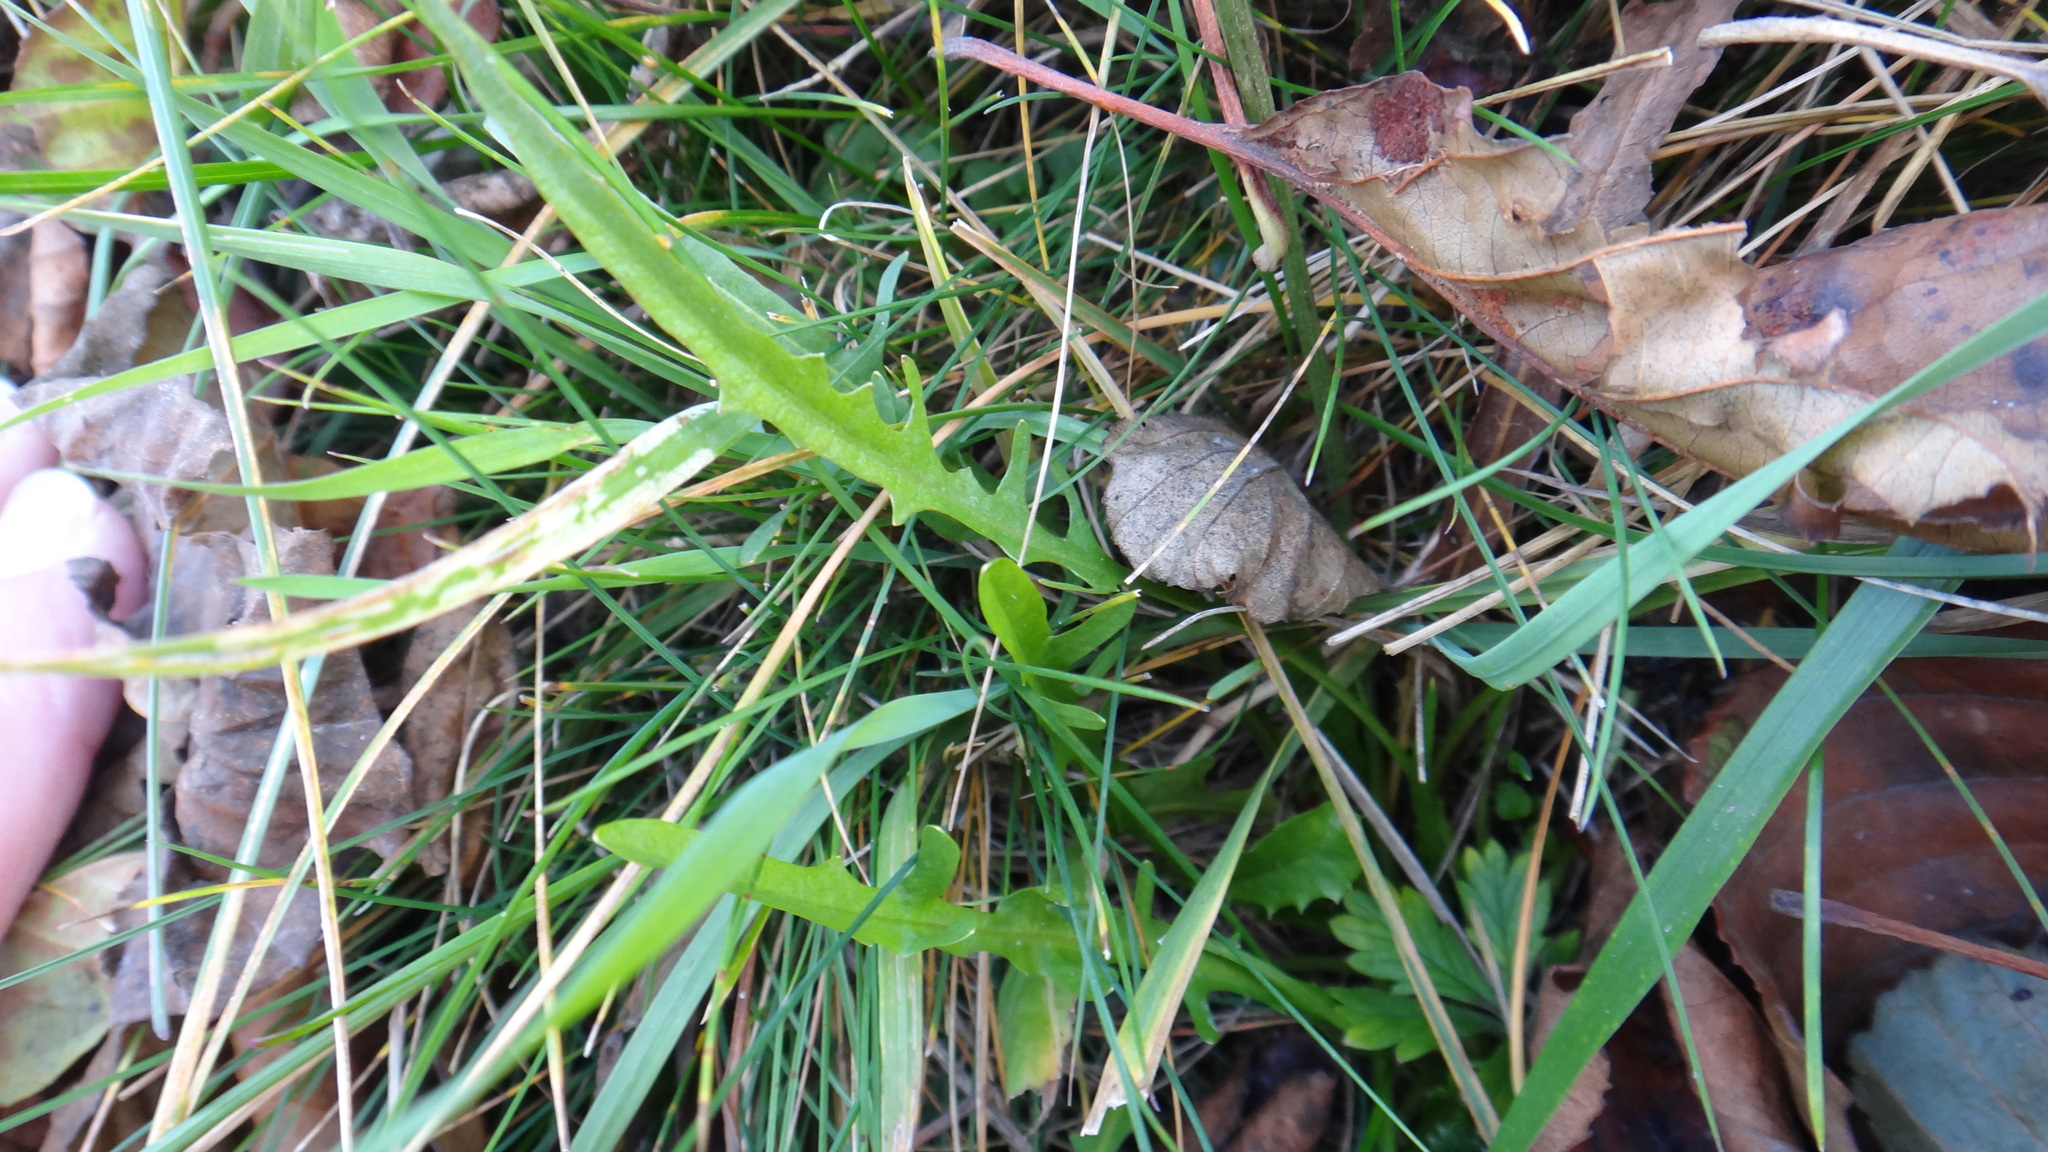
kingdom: Plantae
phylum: Tracheophyta
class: Magnoliopsida
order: Asterales
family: Asteraceae
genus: Scorzoneroides
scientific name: Scorzoneroides autumnalis
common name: Autumn hawkbit
